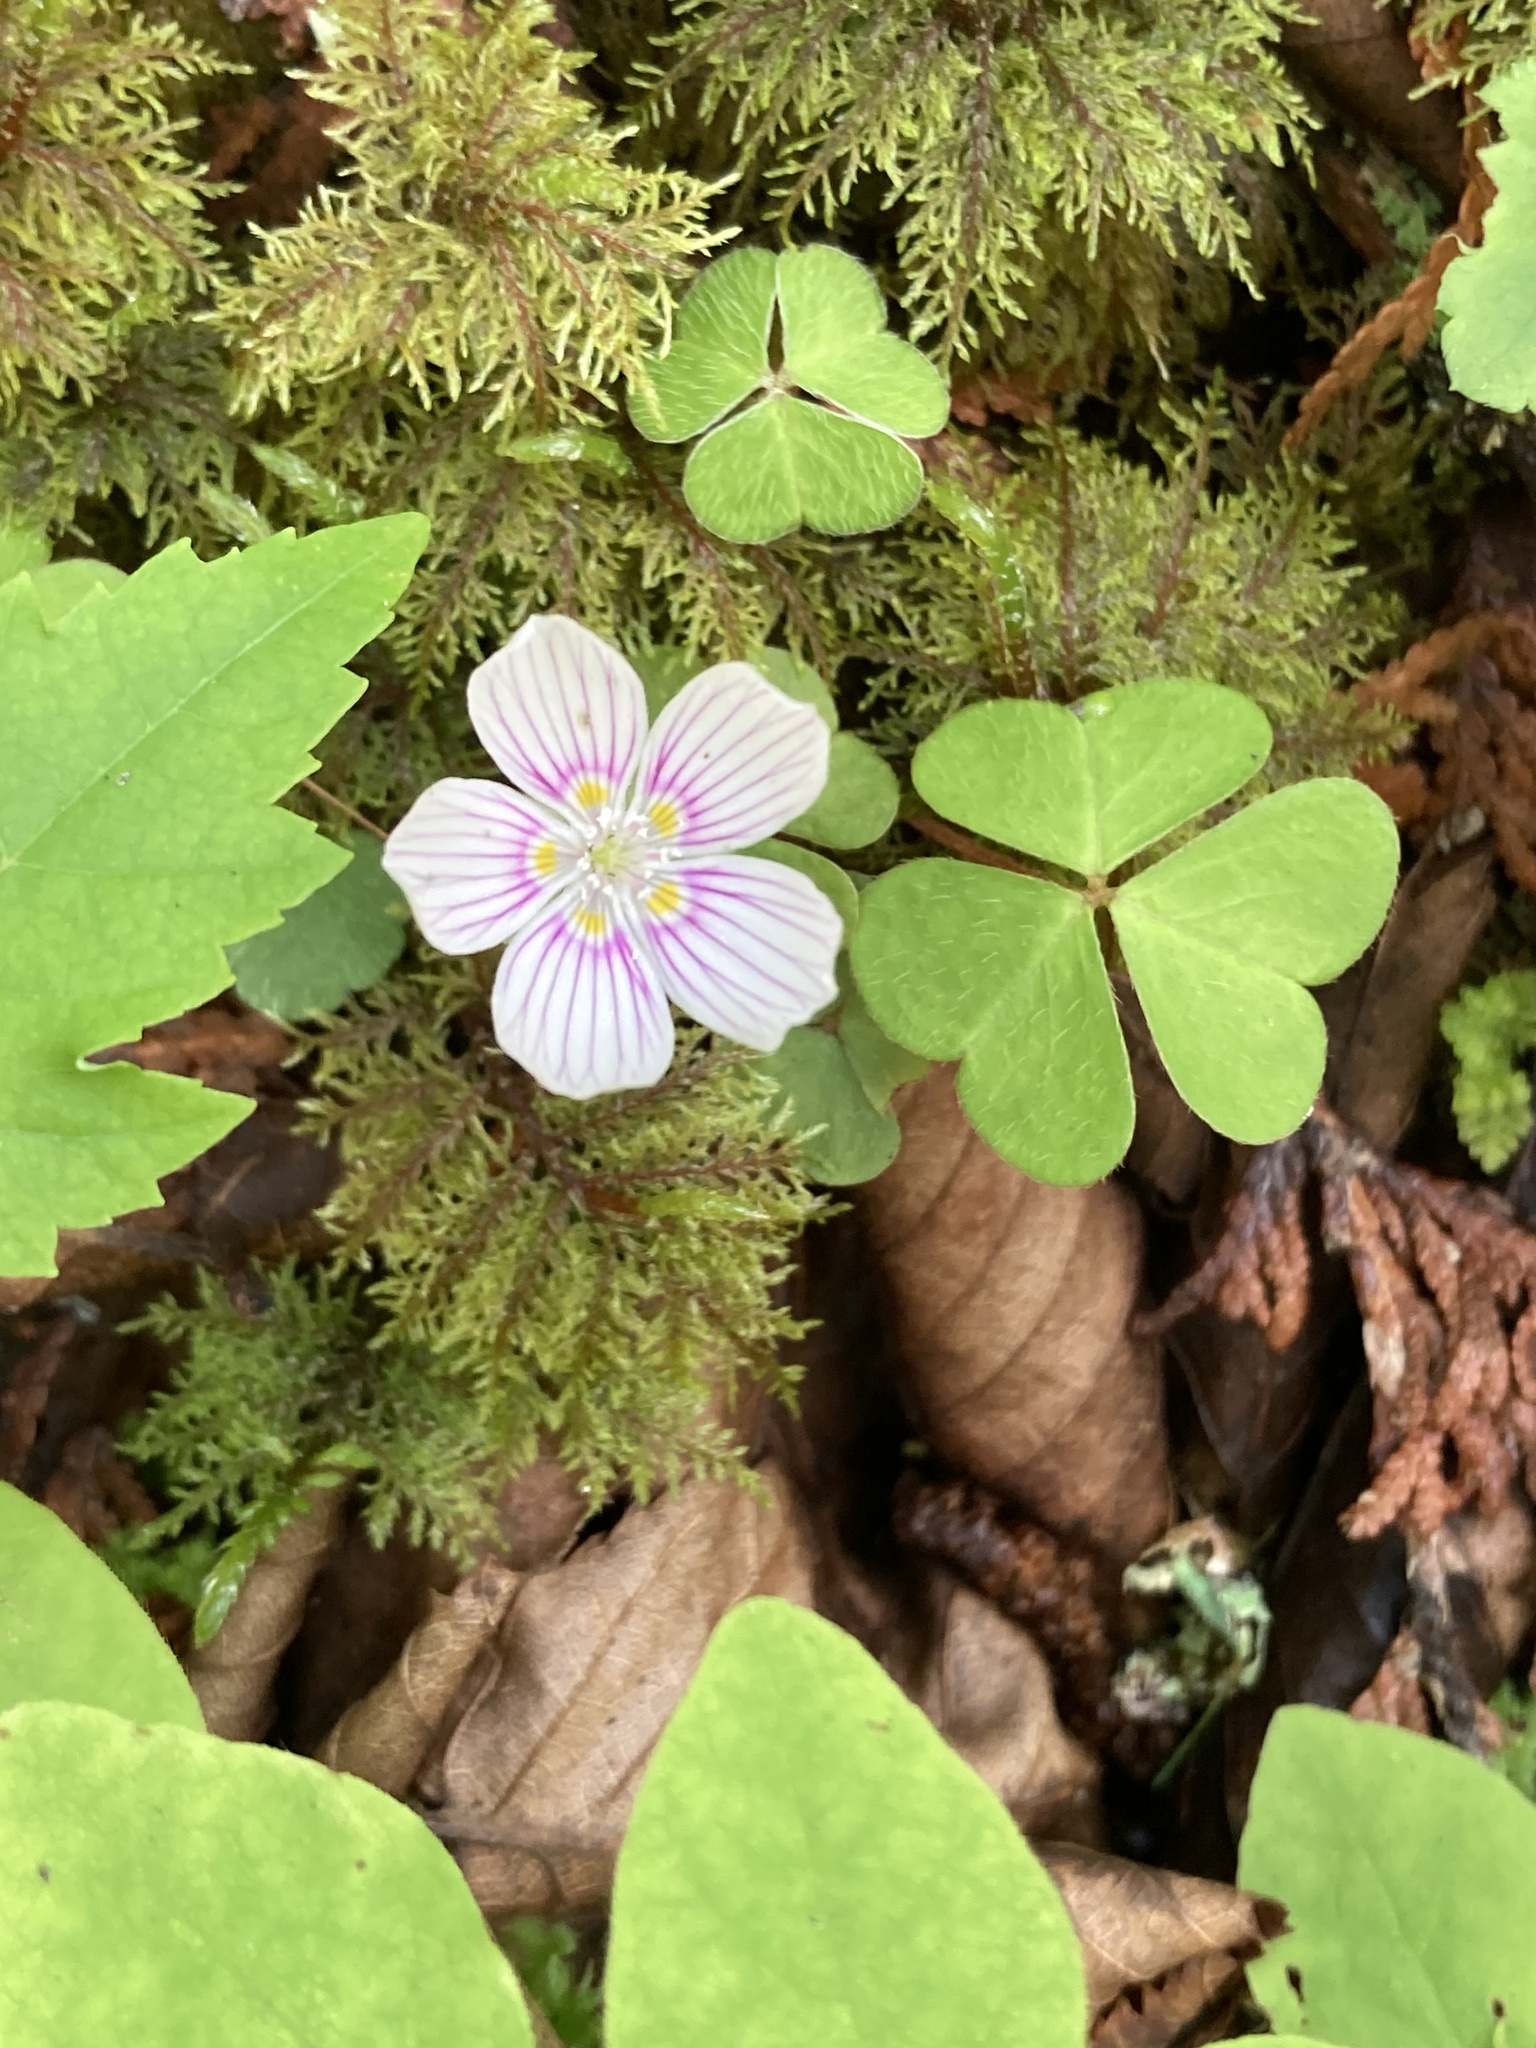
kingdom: Plantae
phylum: Tracheophyta
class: Magnoliopsida
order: Oxalidales
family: Oxalidaceae
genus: Oxalis
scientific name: Oxalis montana
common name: American wood-sorrel
